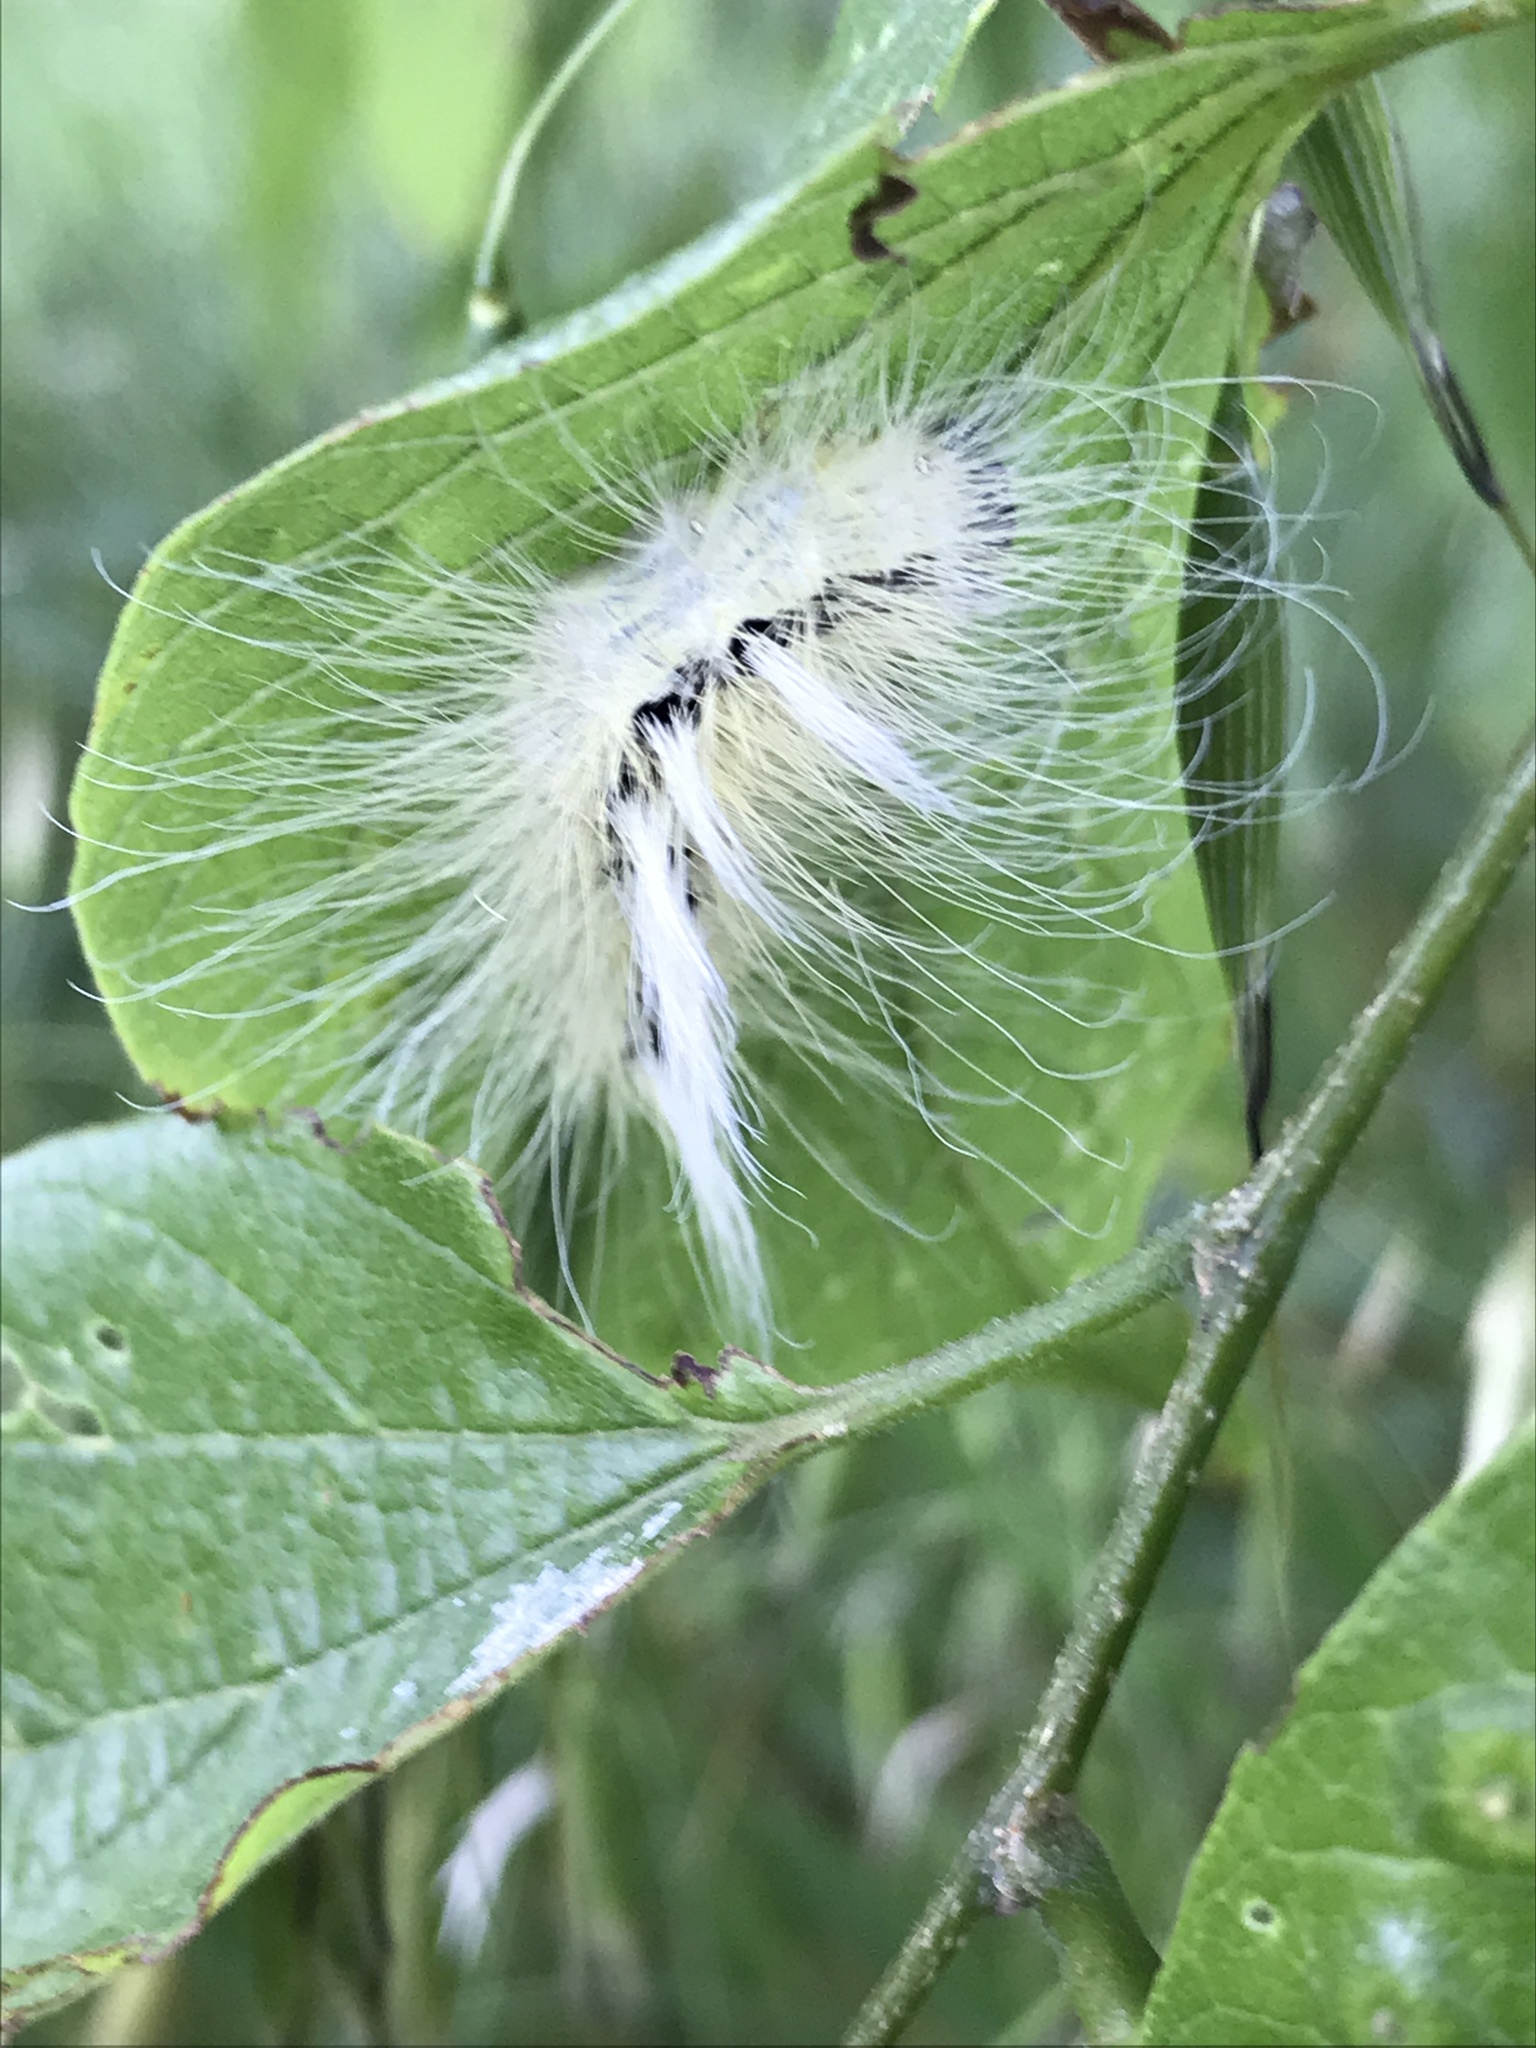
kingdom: Animalia
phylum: Arthropoda
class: Insecta
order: Lepidoptera
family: Noctuidae
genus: Acronicta
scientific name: Acronicta rubricoma
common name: Hackberry dagger
